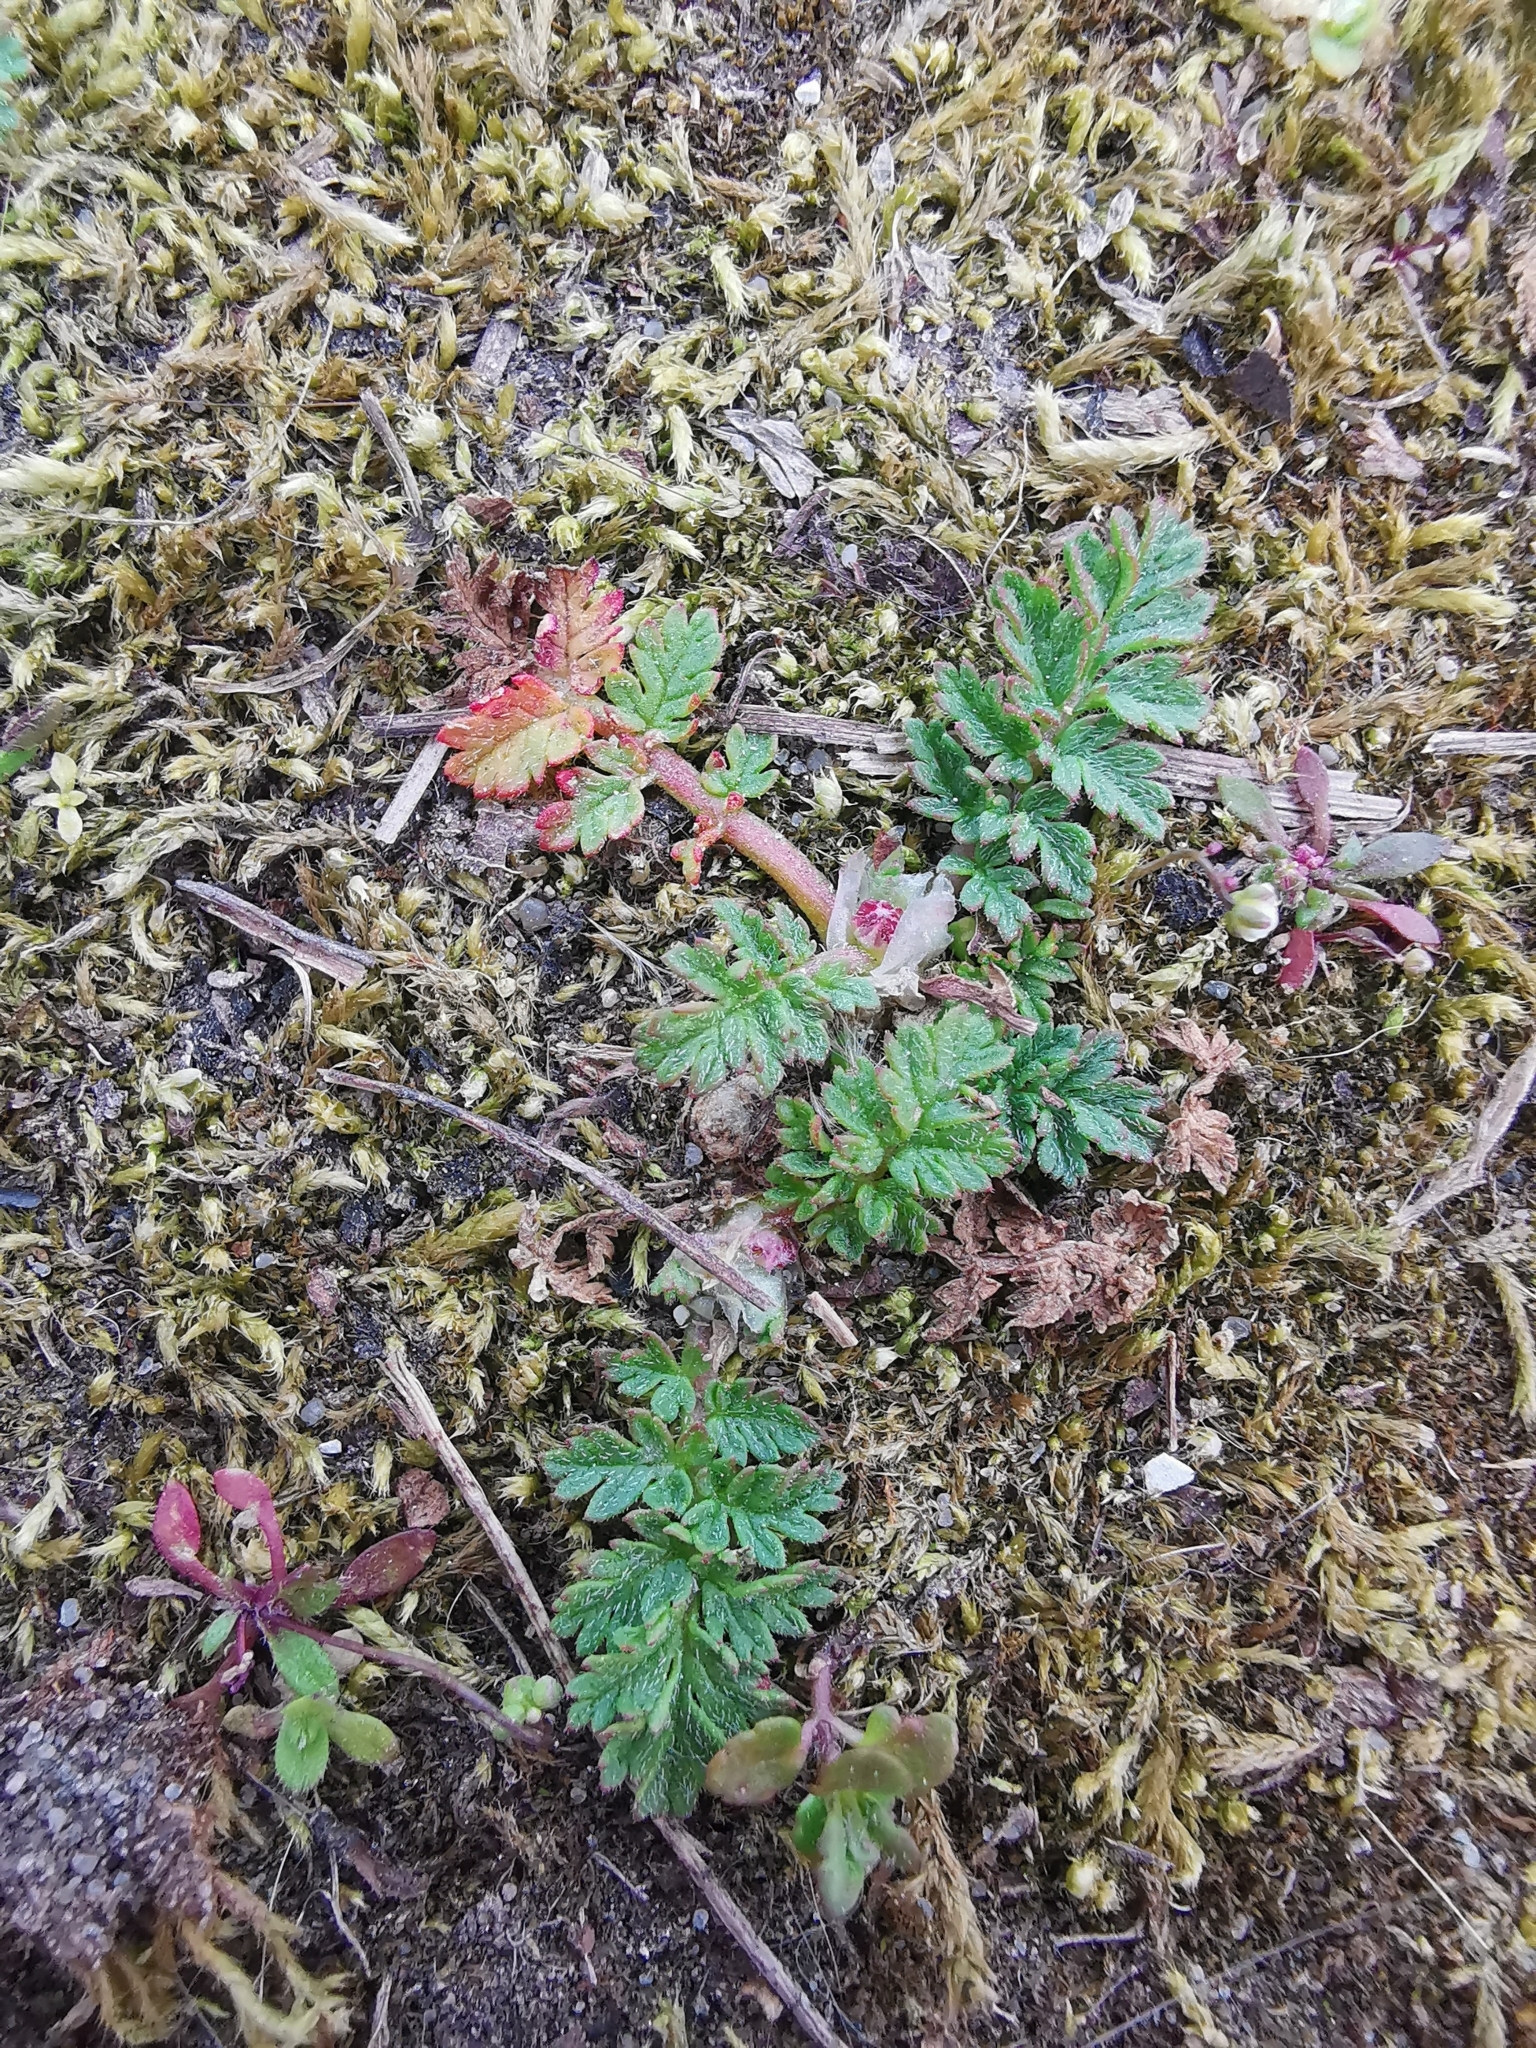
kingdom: Plantae
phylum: Tracheophyta
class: Magnoliopsida
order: Geraniales
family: Geraniaceae
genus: Erodium
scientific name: Erodium cicutarium
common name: Common stork's-bill
